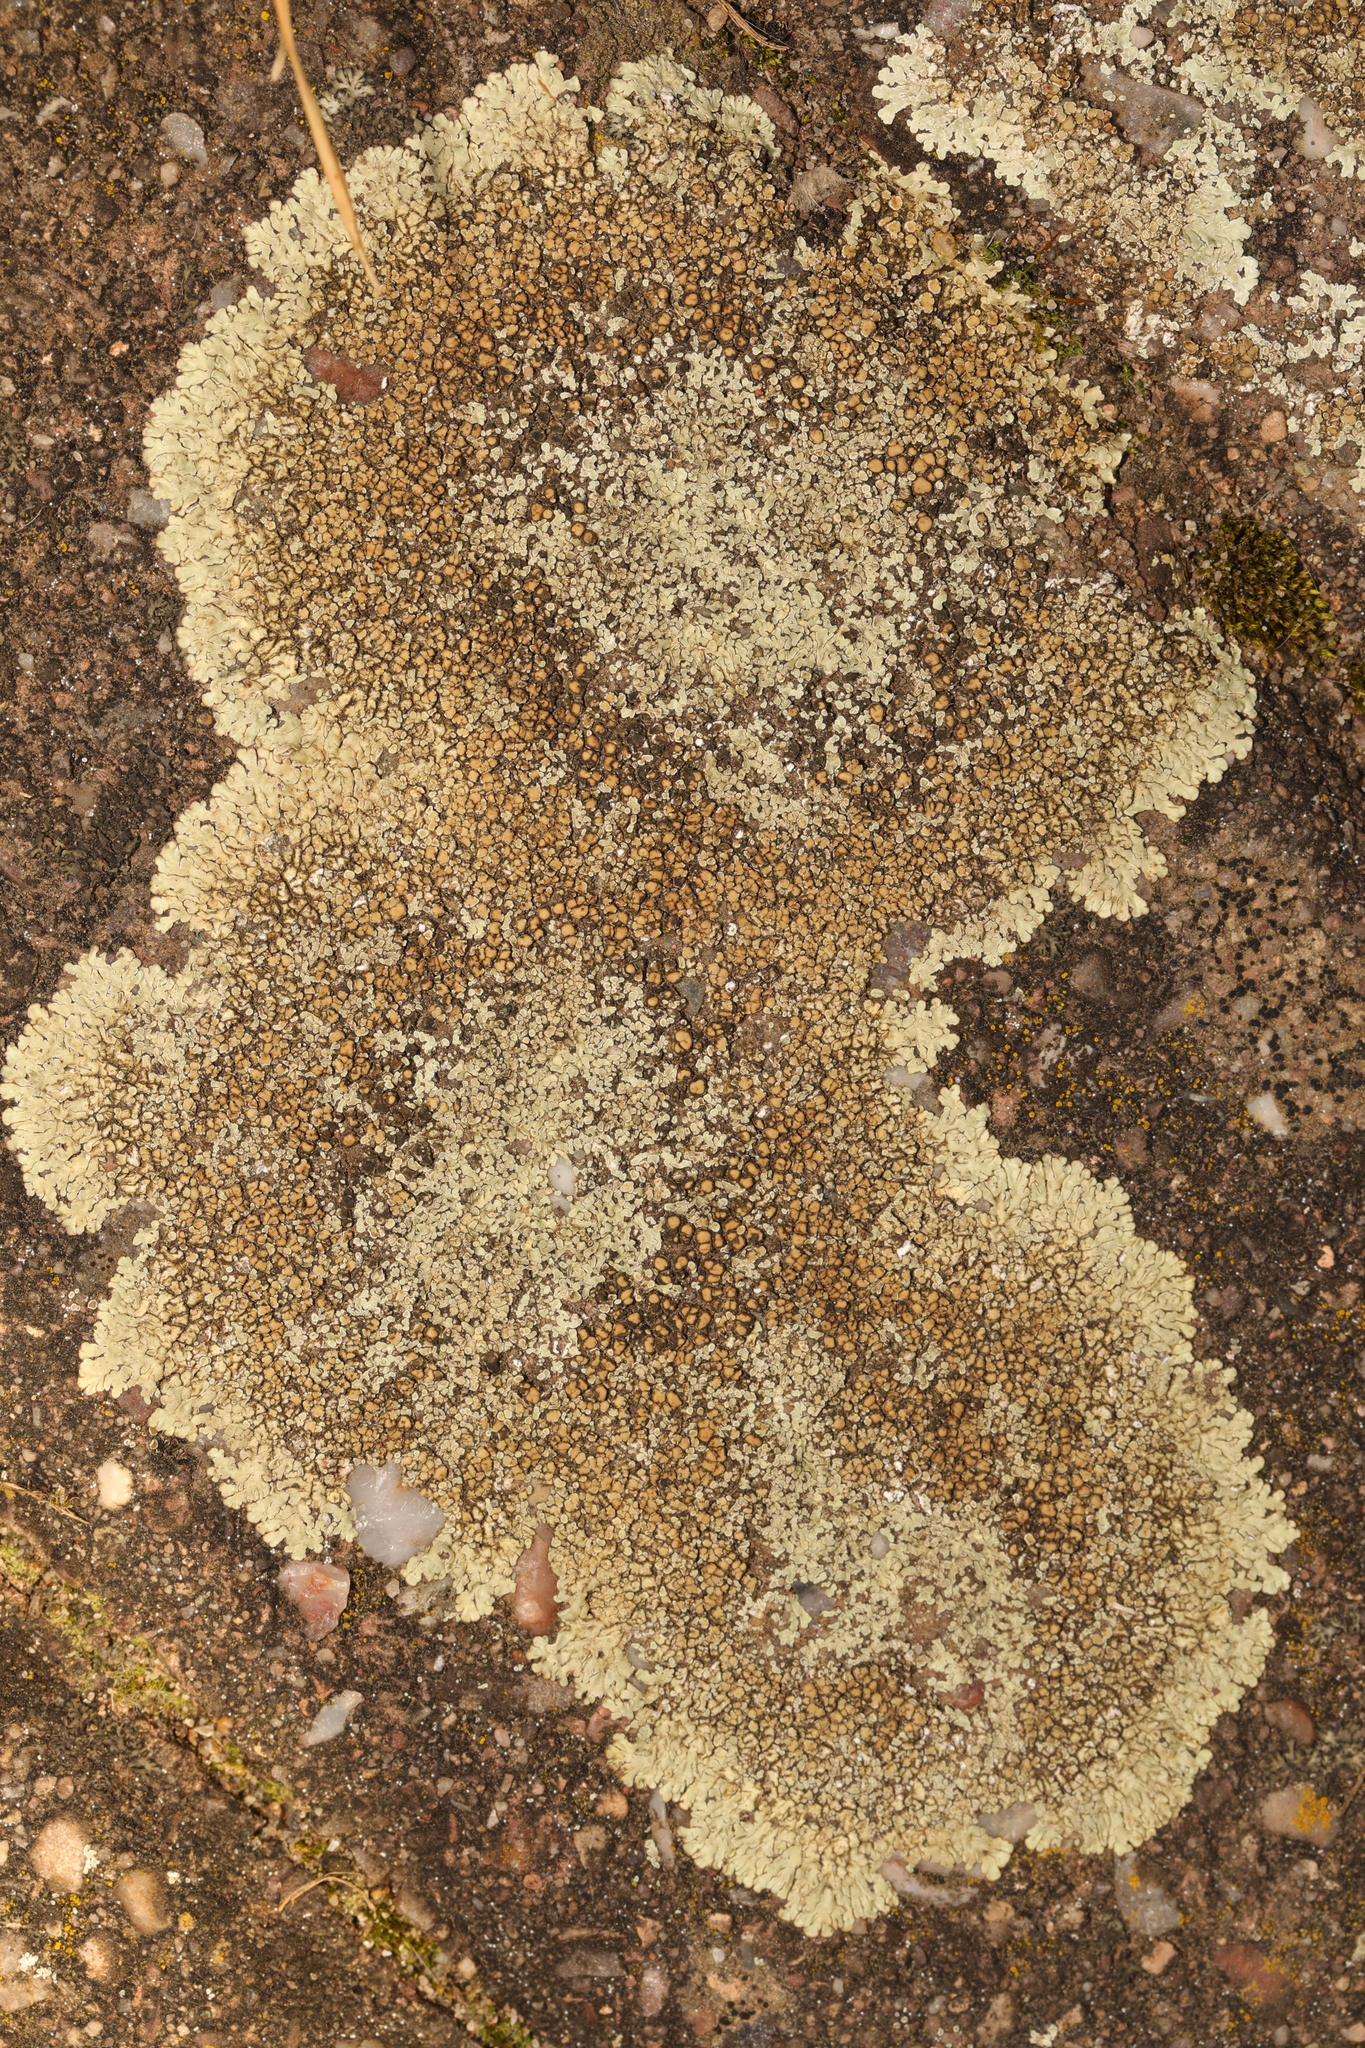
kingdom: Fungi
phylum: Ascomycota
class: Lecanoromycetes
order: Lecanorales
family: Lecanoraceae
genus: Protoparmeliopsis
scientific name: Protoparmeliopsis muralis
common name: Stonewall rim lichen
